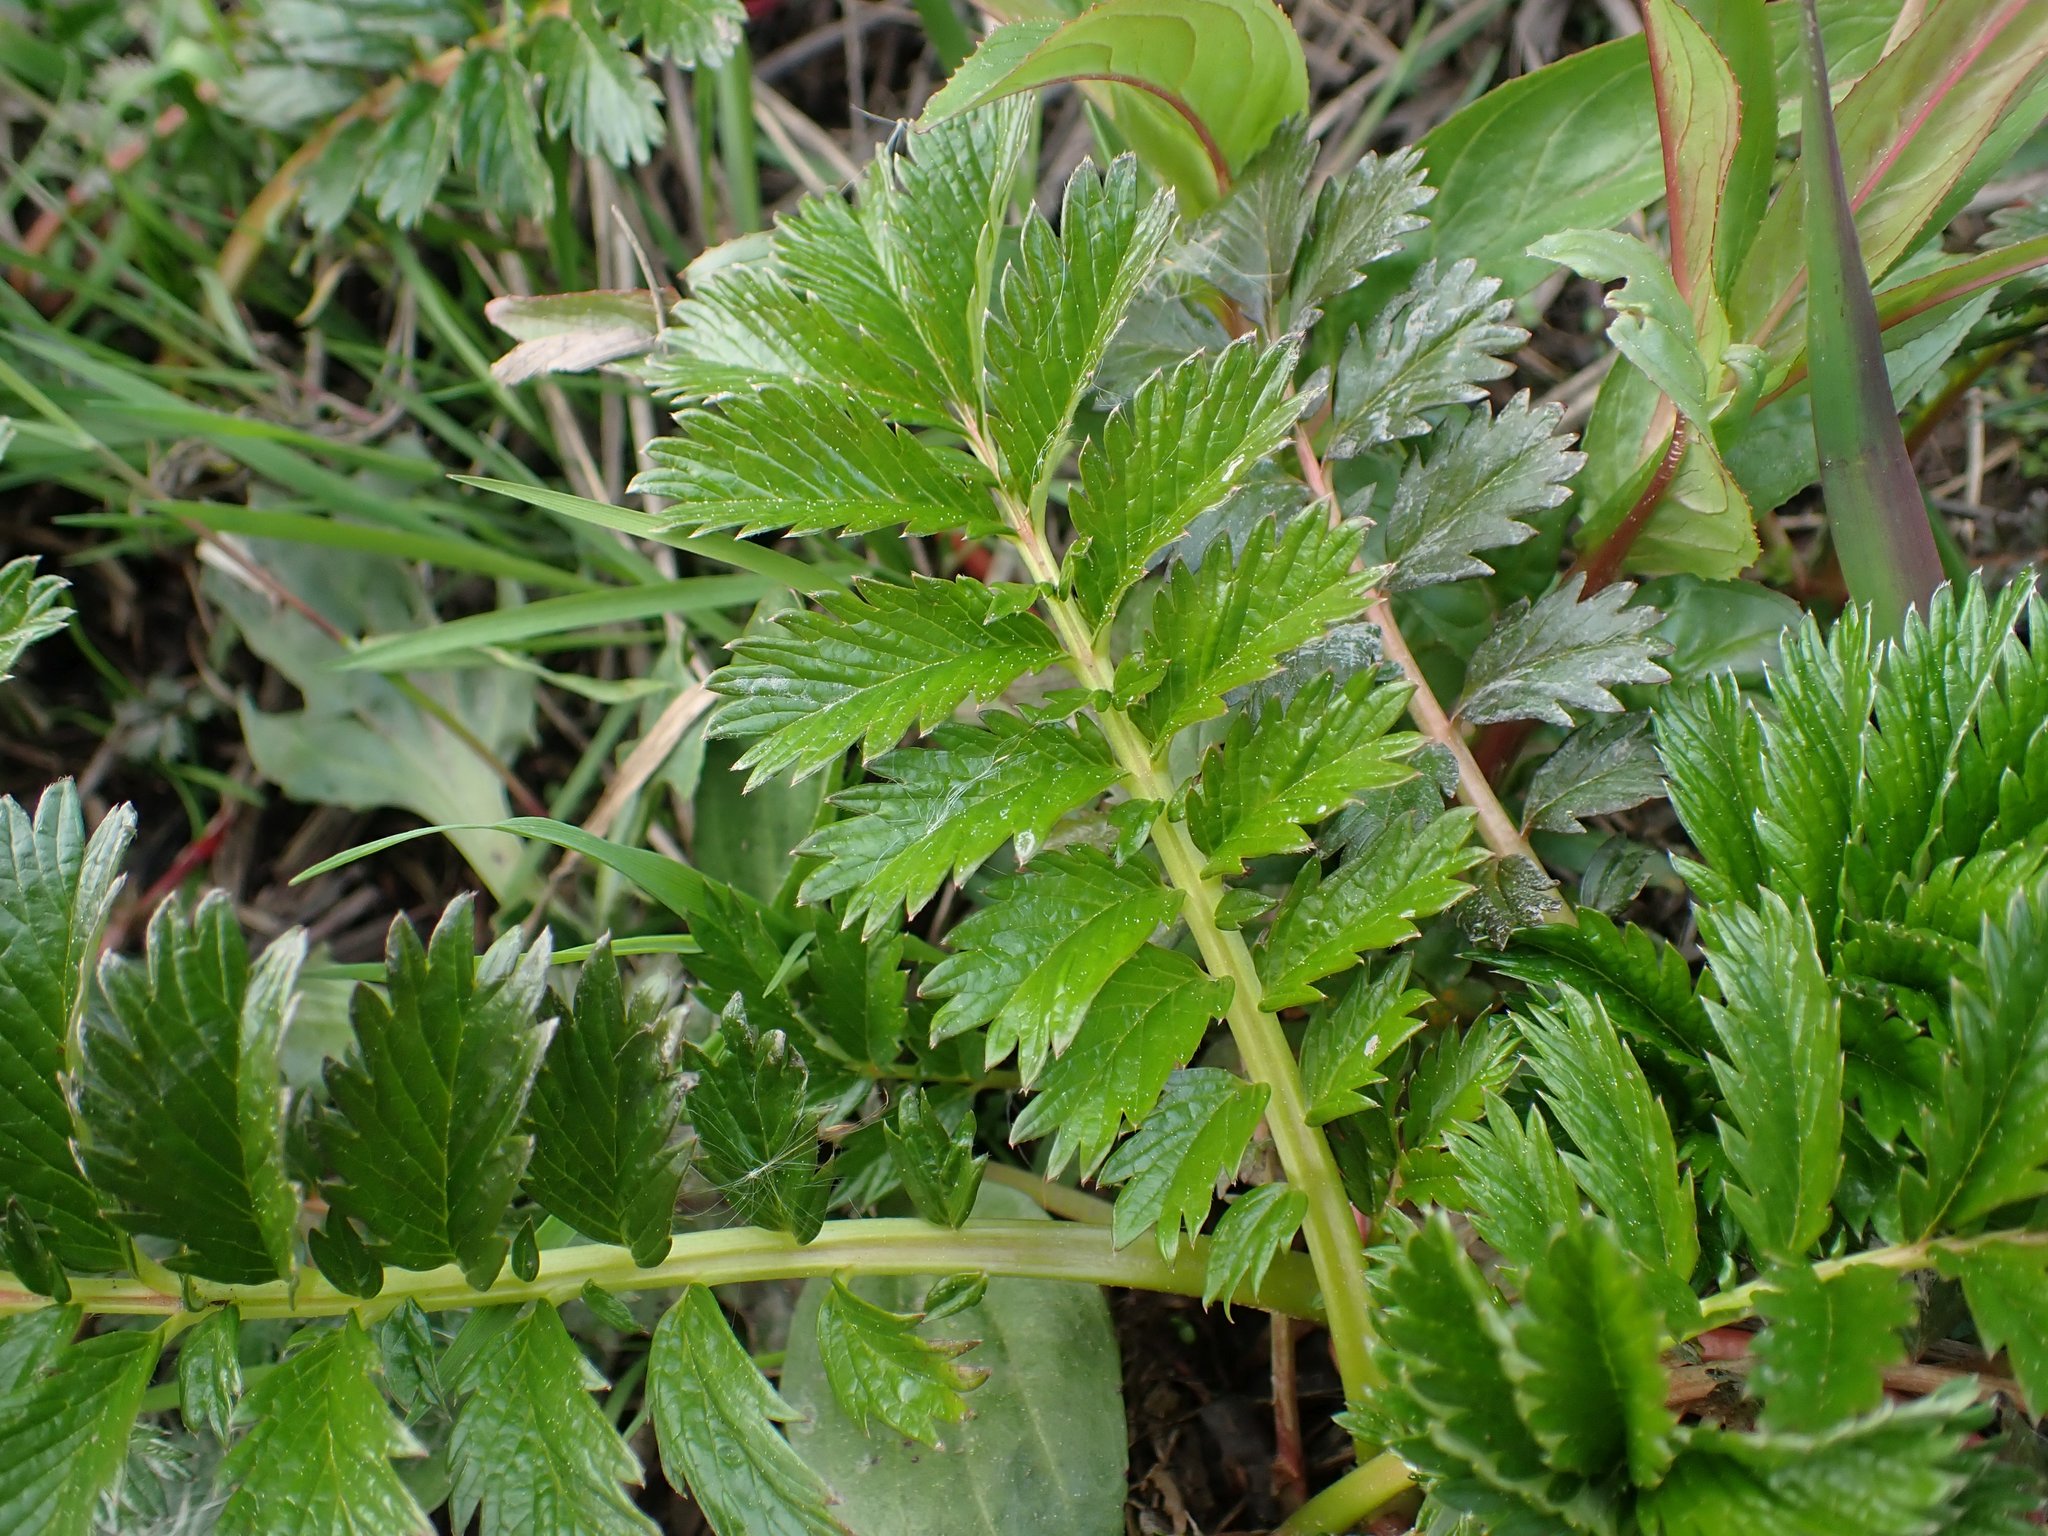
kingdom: Plantae
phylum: Tracheophyta
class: Magnoliopsida
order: Rosales
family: Rosaceae
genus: Argentina
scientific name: Argentina anserina
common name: Common silverweed
